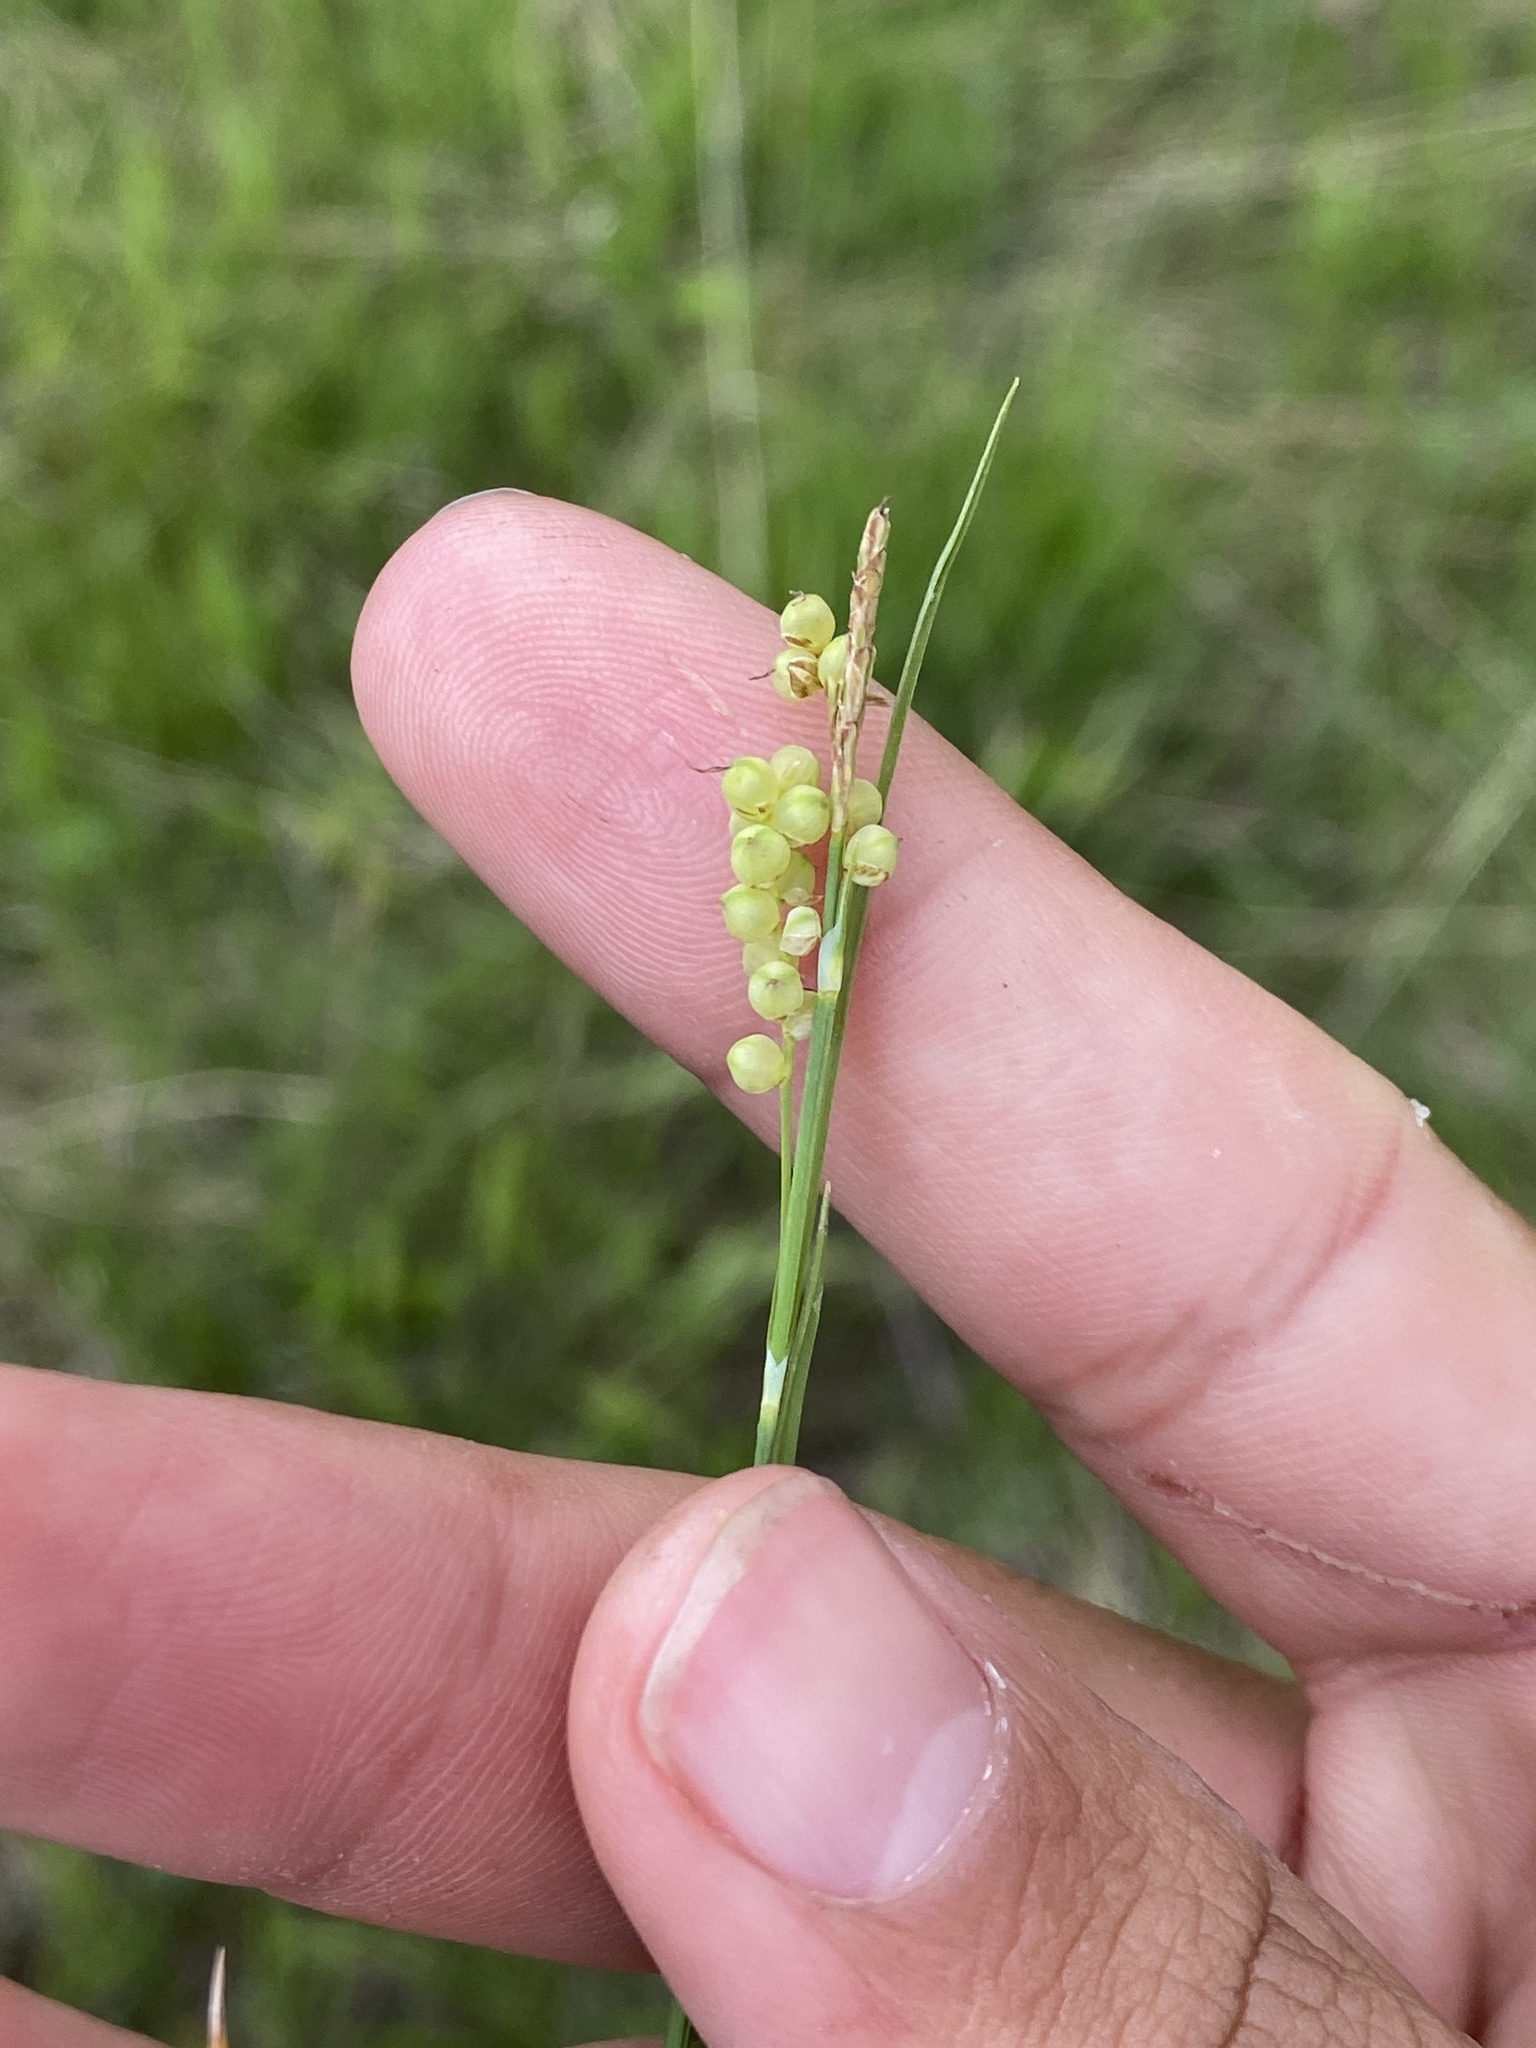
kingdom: Plantae
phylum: Tracheophyta
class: Liliopsida
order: Poales
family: Cyperaceae
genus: Carex
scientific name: Carex aurea
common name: Golden sedge
